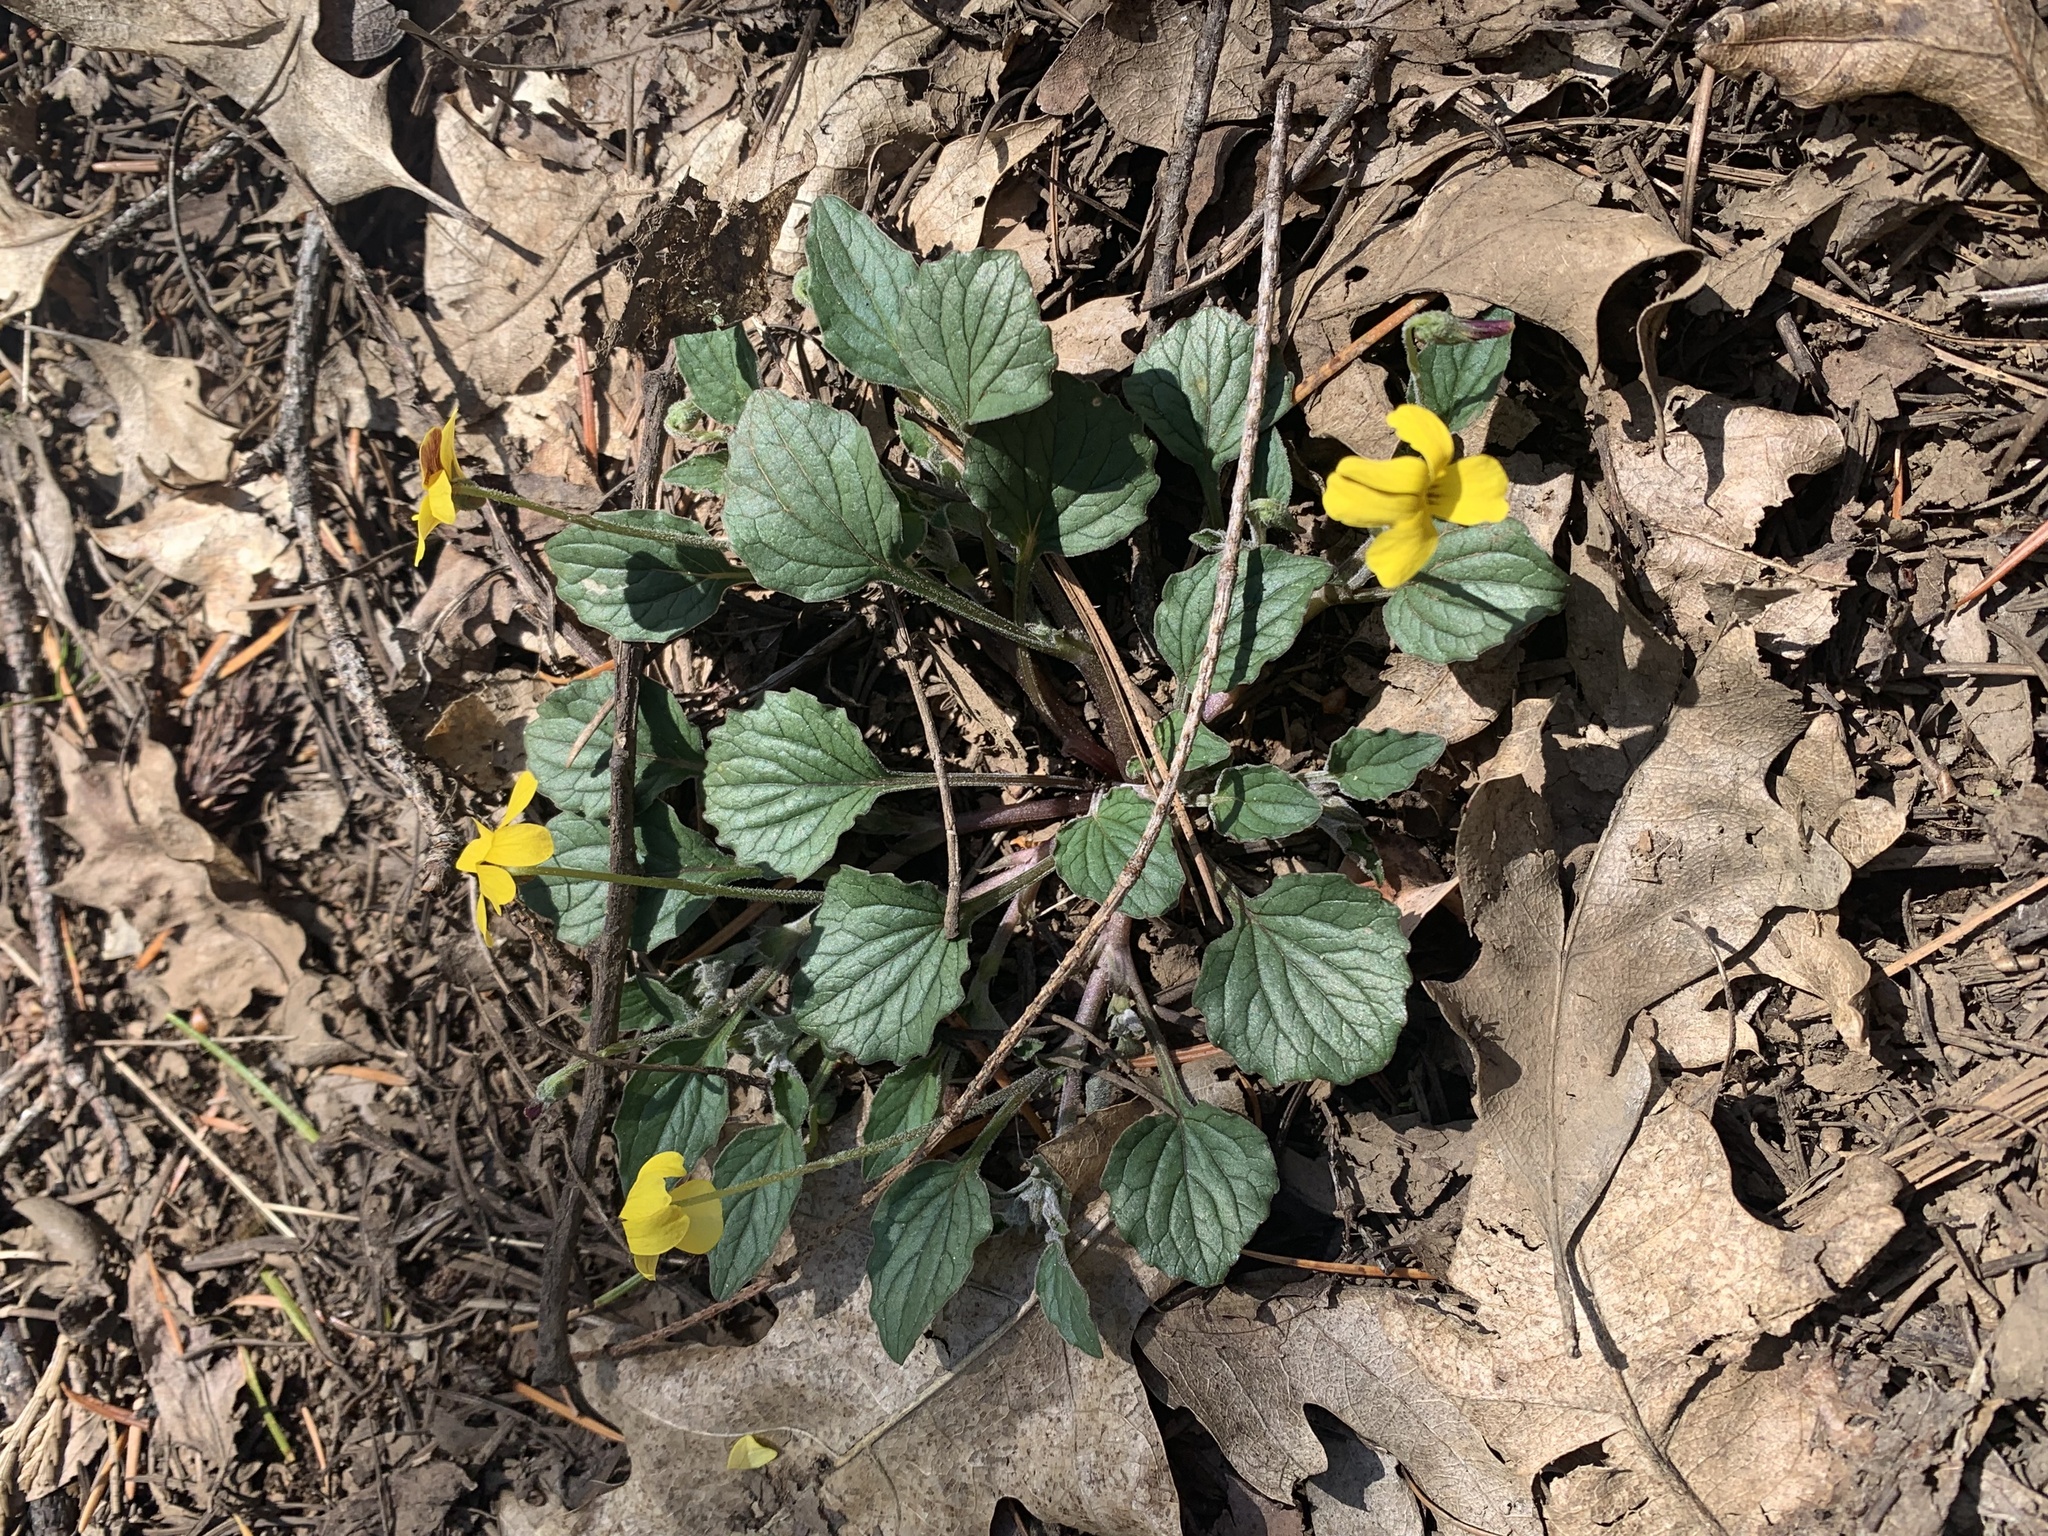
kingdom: Plantae
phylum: Tracheophyta
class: Magnoliopsida
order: Malpighiales
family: Violaceae
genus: Viola
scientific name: Viola purpurea
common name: Pine violet
